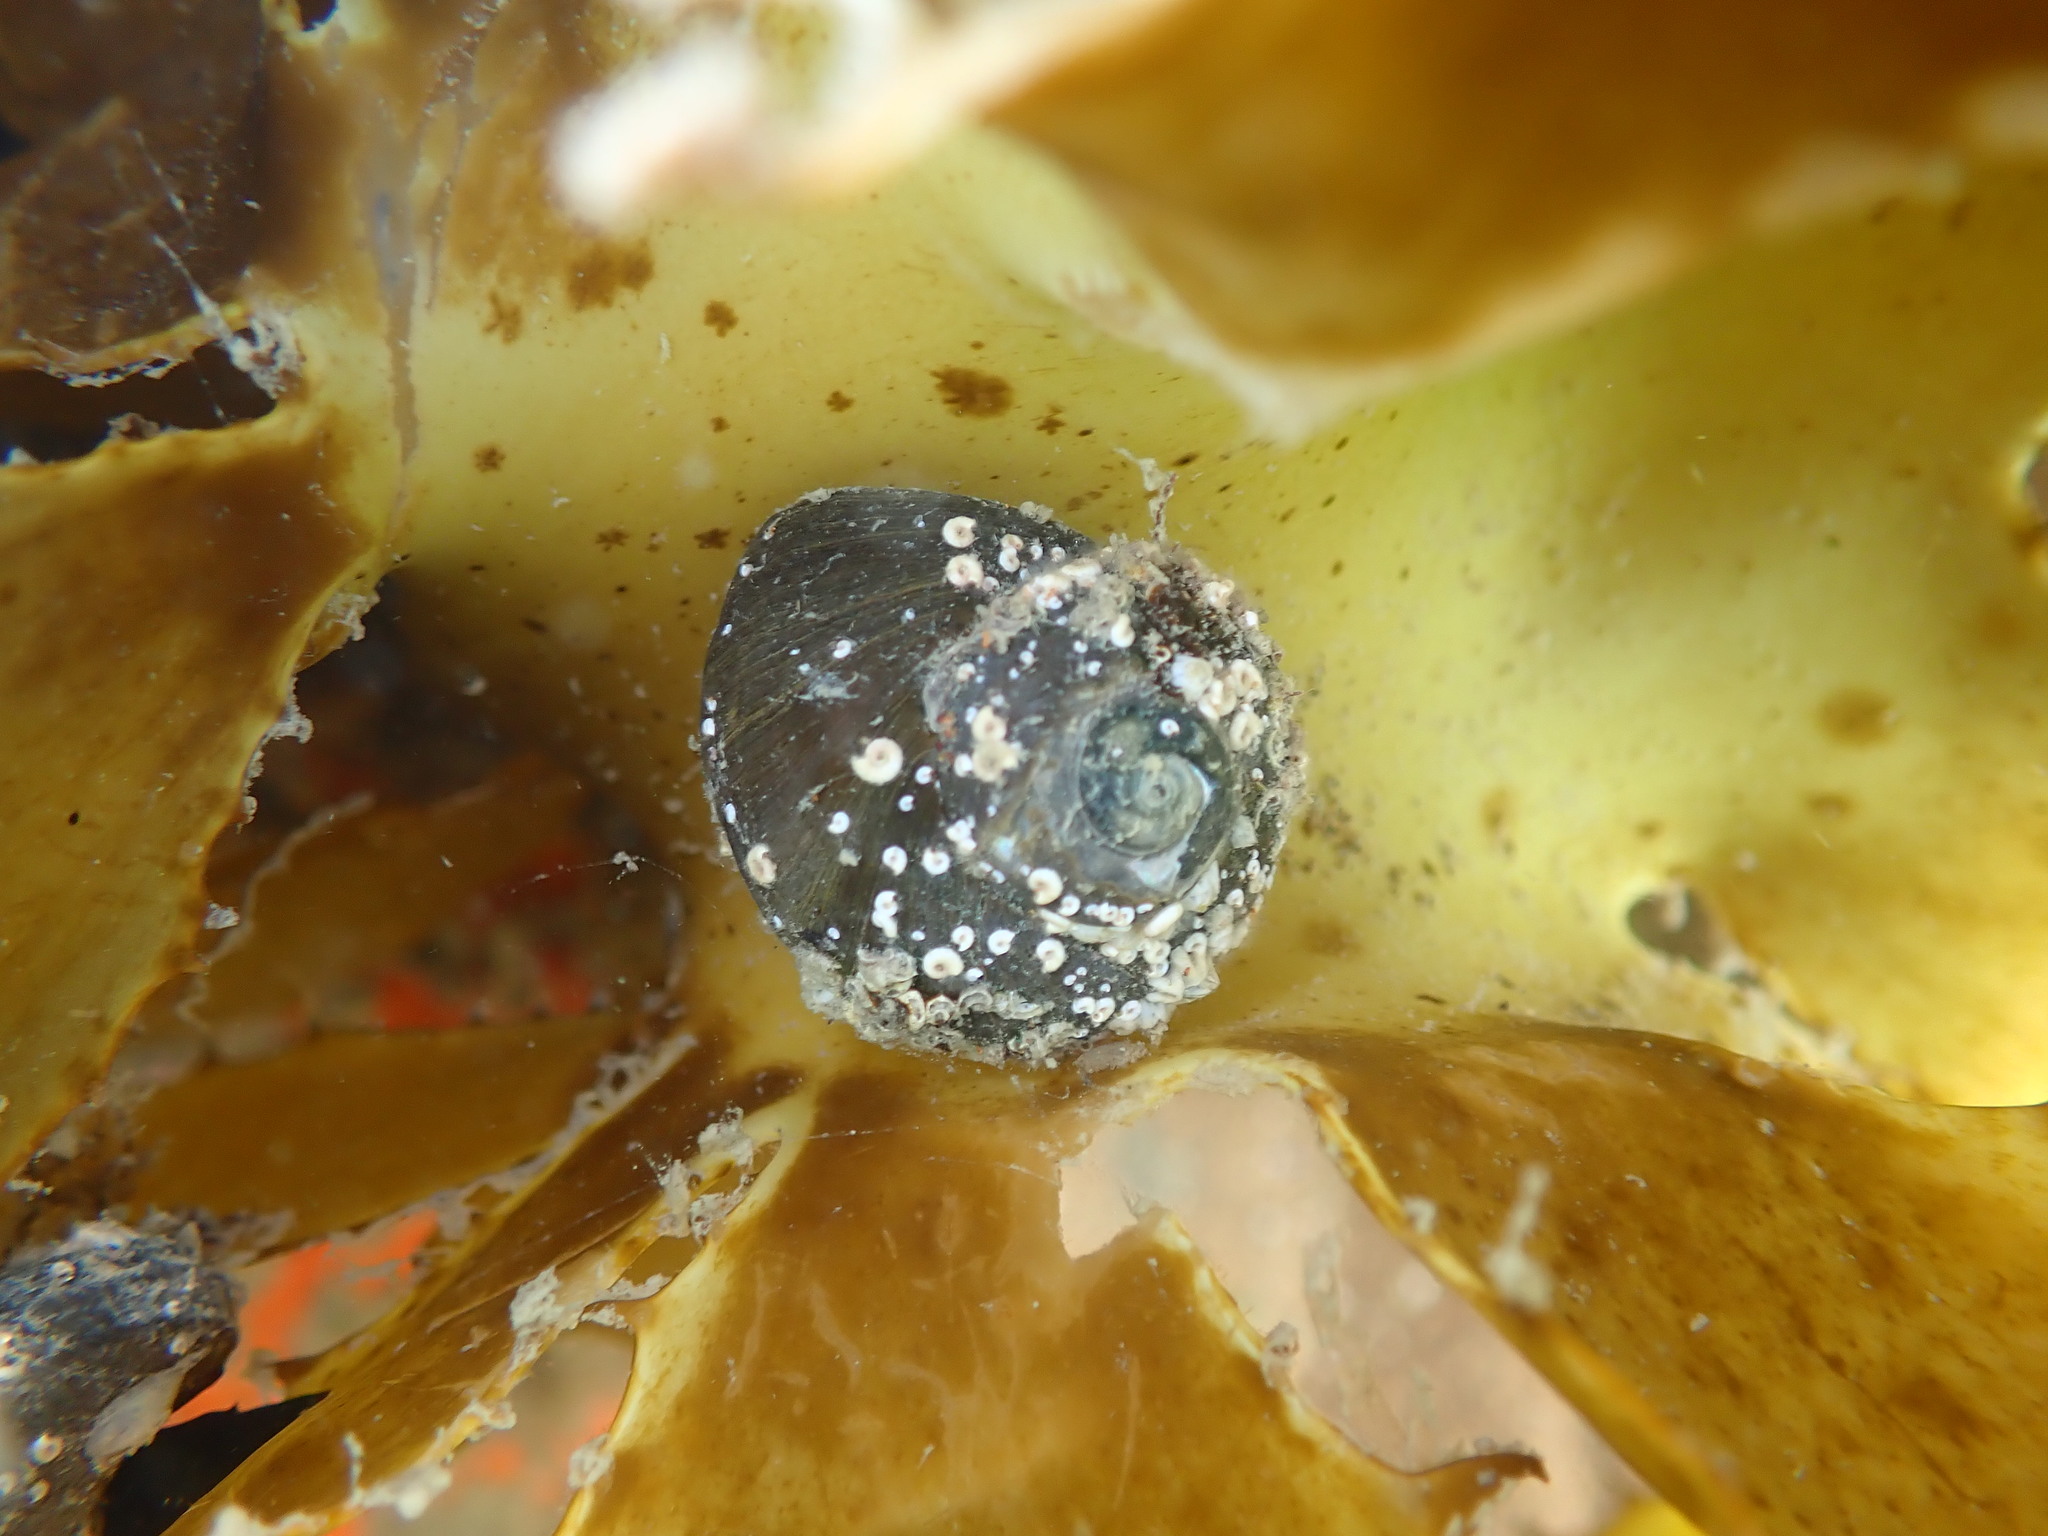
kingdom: Animalia
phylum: Mollusca
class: Gastropoda
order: Trochida
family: Turbinidae
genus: Lunella
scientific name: Lunella smaragda
